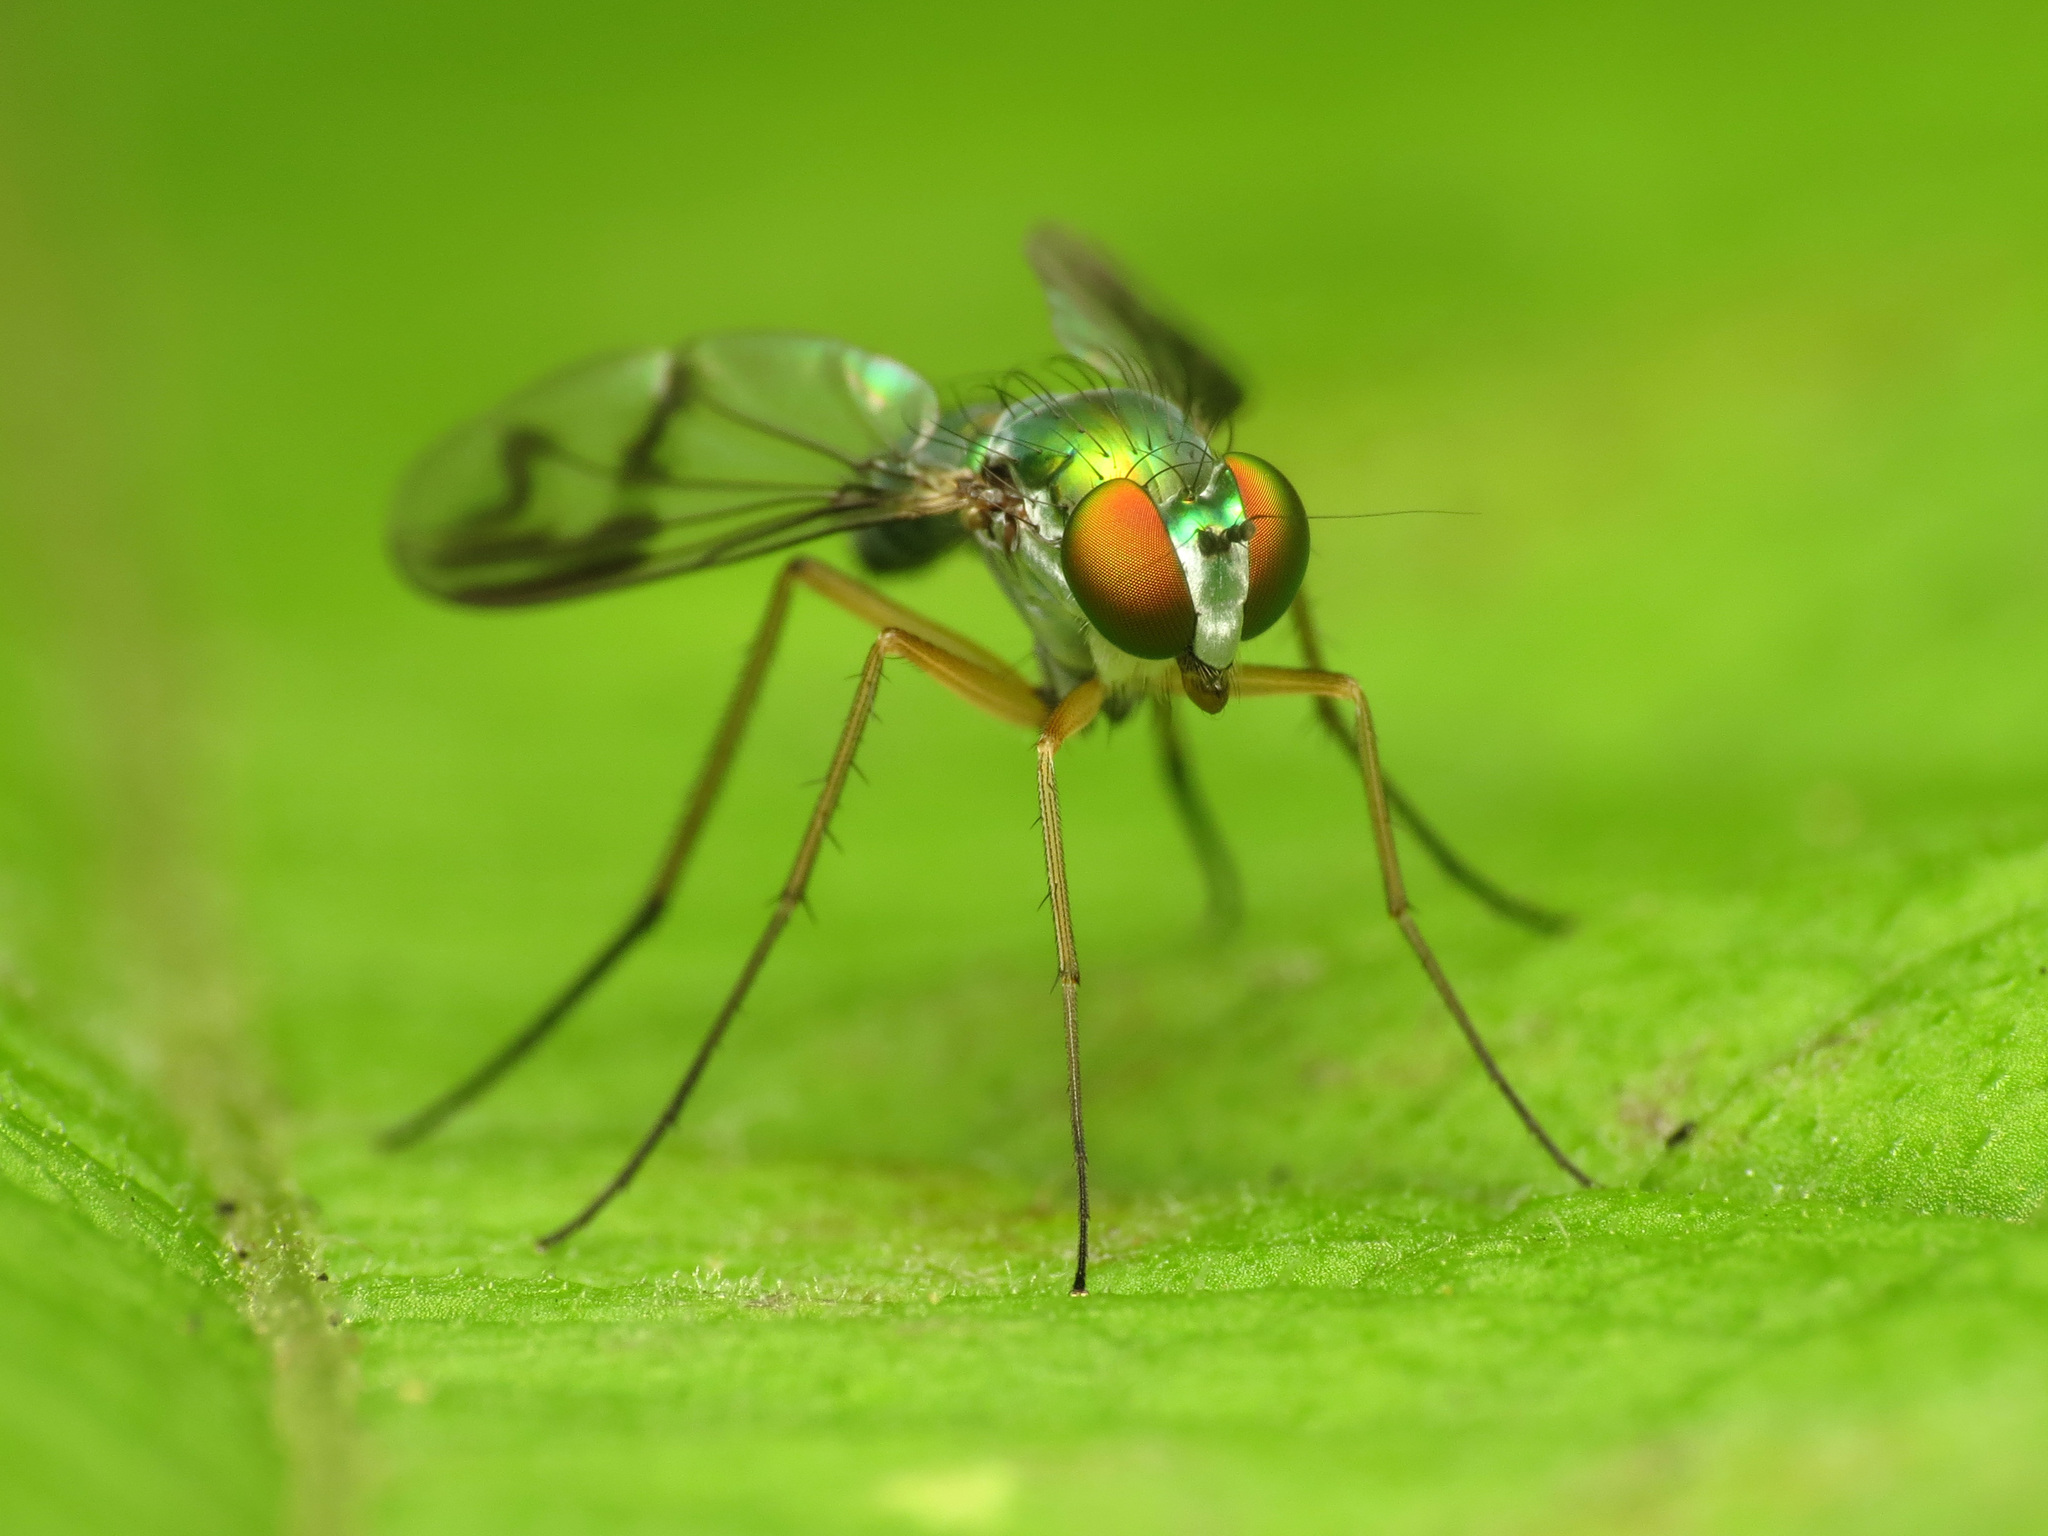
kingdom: Animalia
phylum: Arthropoda
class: Insecta
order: Diptera
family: Dolichopodidae
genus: Condylostylus
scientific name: Condylostylus
